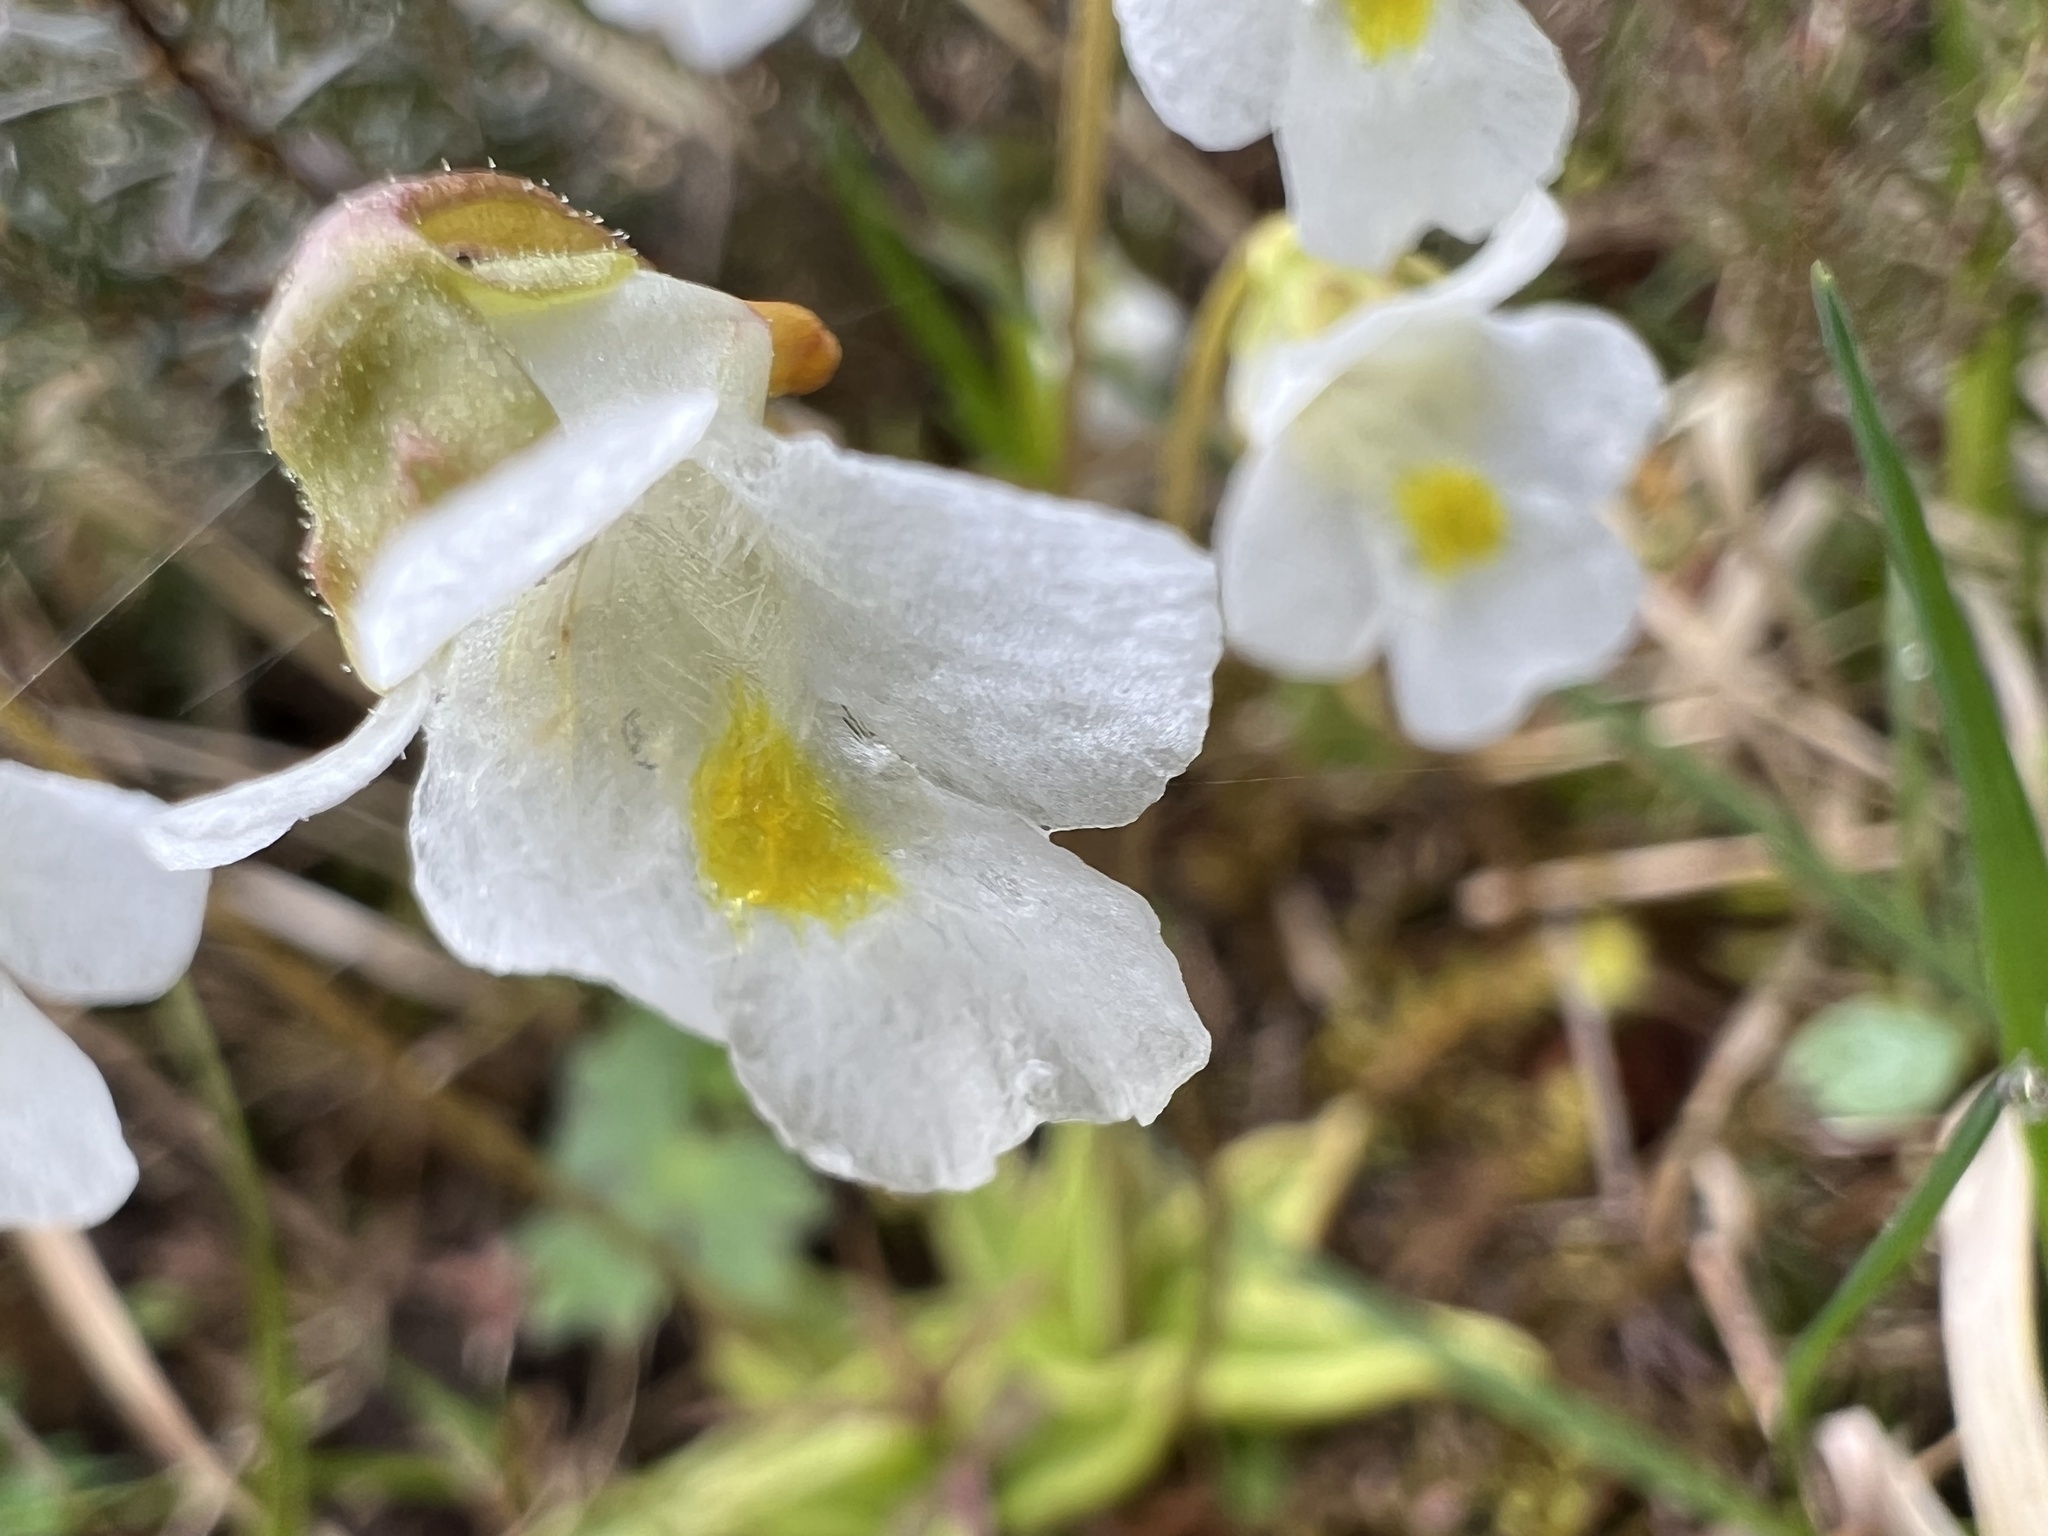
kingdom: Plantae
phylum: Tracheophyta
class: Magnoliopsida
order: Lamiales
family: Lentibulariaceae
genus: Pinguicula
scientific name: Pinguicula alpina
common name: Alpine butterwort
